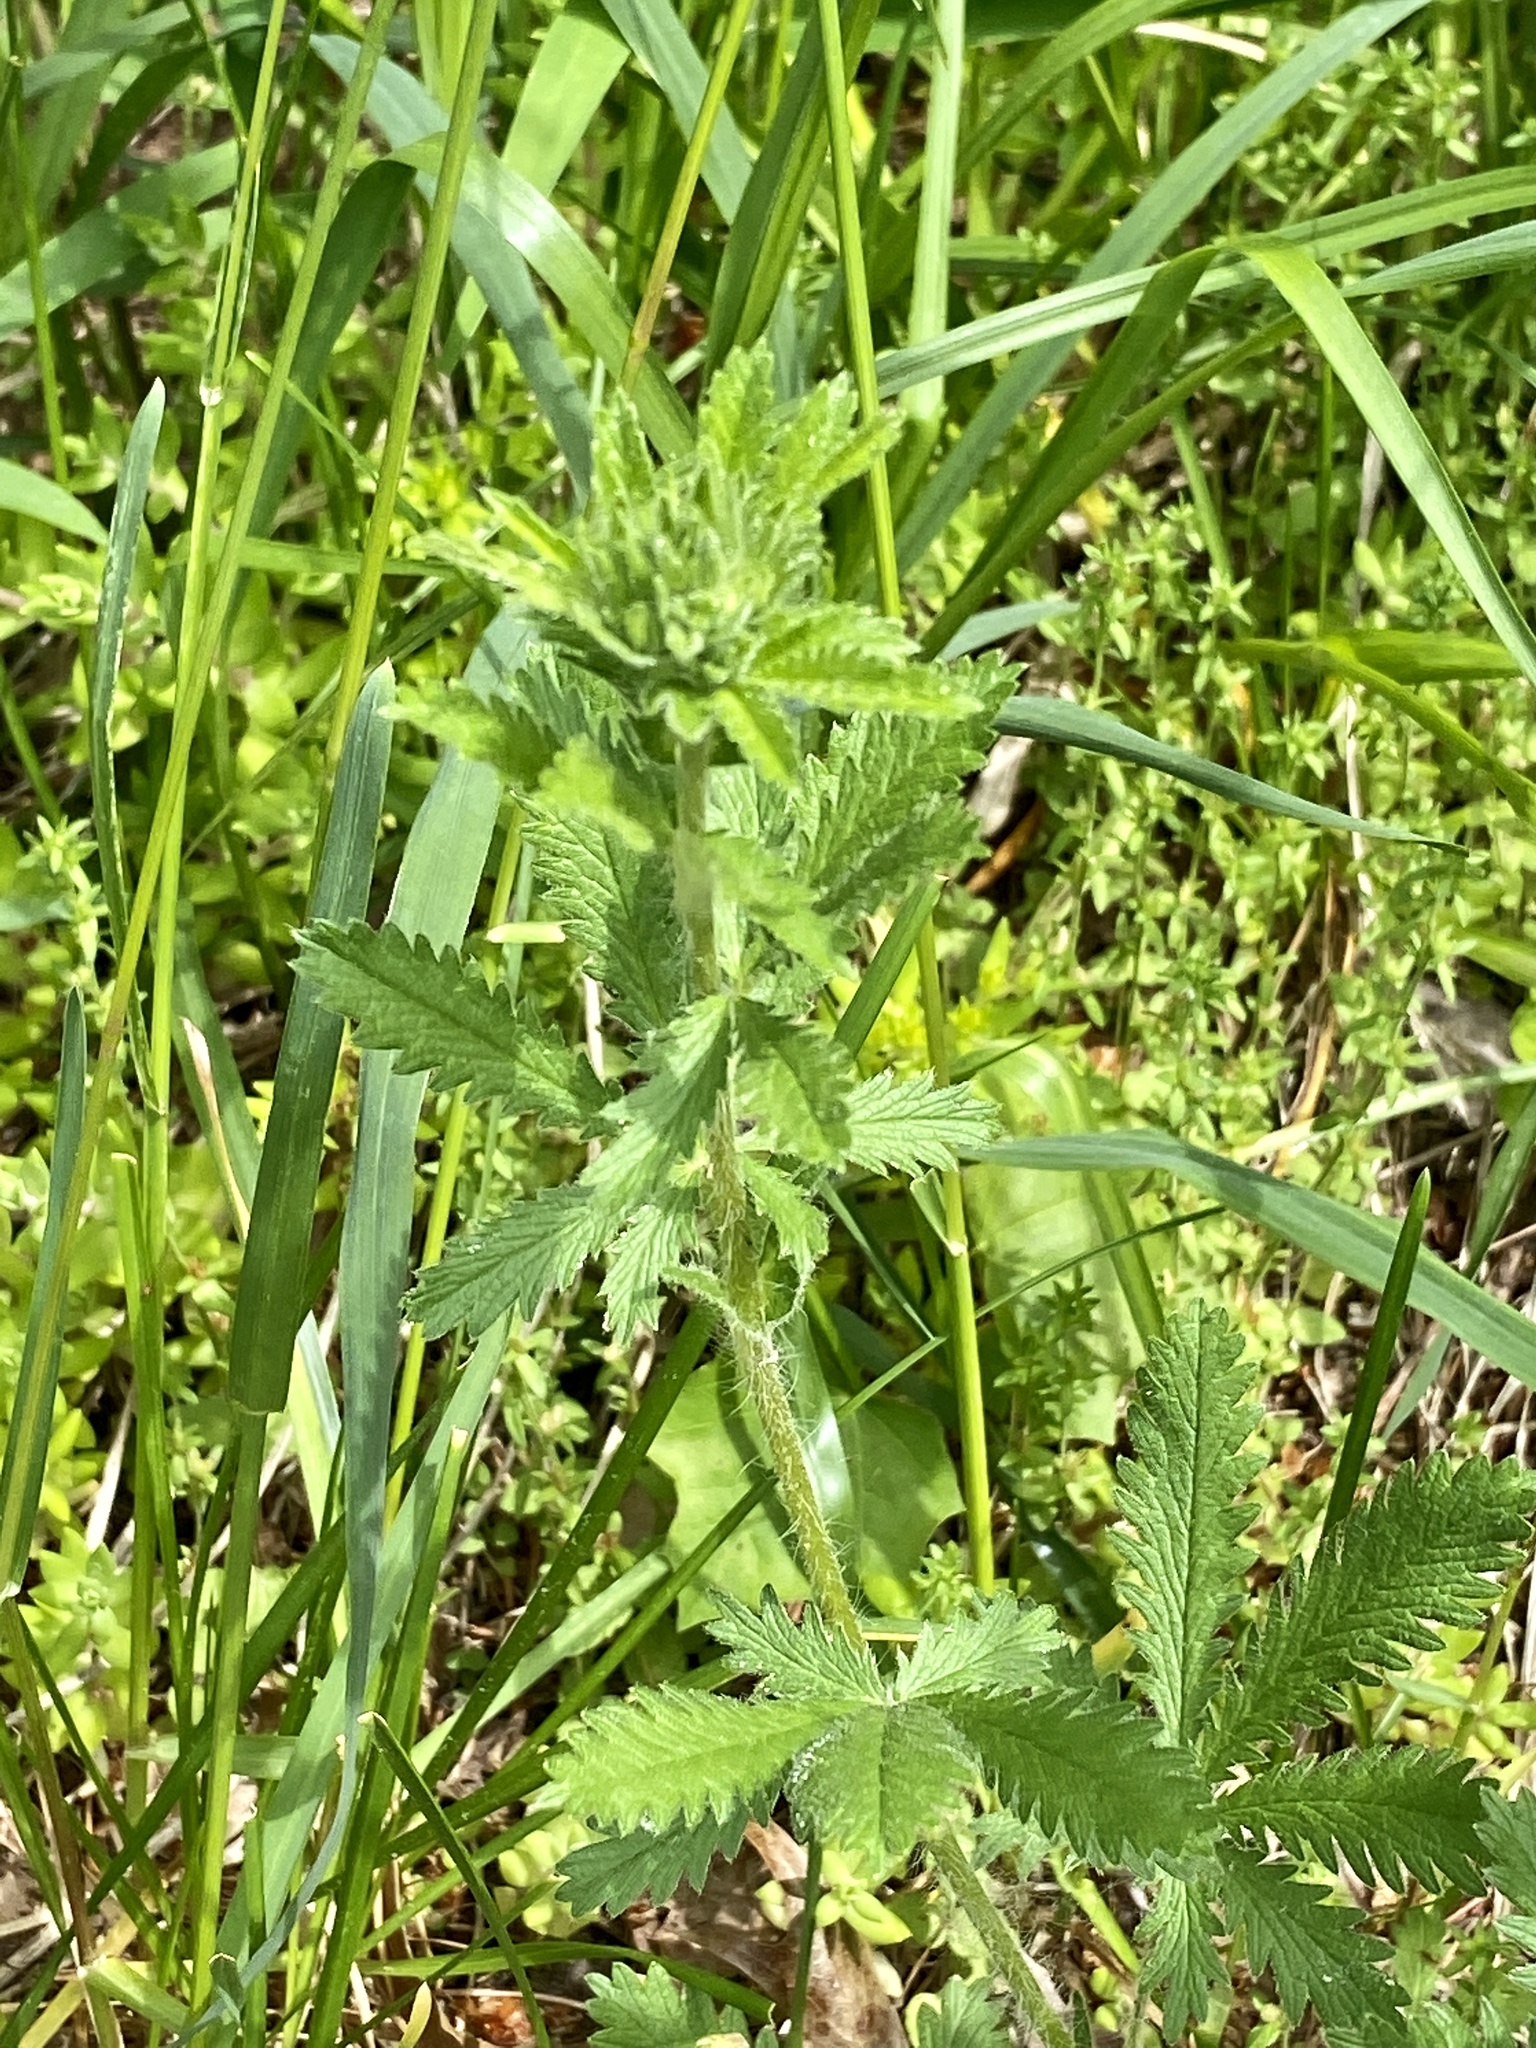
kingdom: Plantae
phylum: Tracheophyta
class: Magnoliopsida
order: Rosales
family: Rosaceae
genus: Potentilla
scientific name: Potentilla recta
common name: Sulphur cinquefoil
